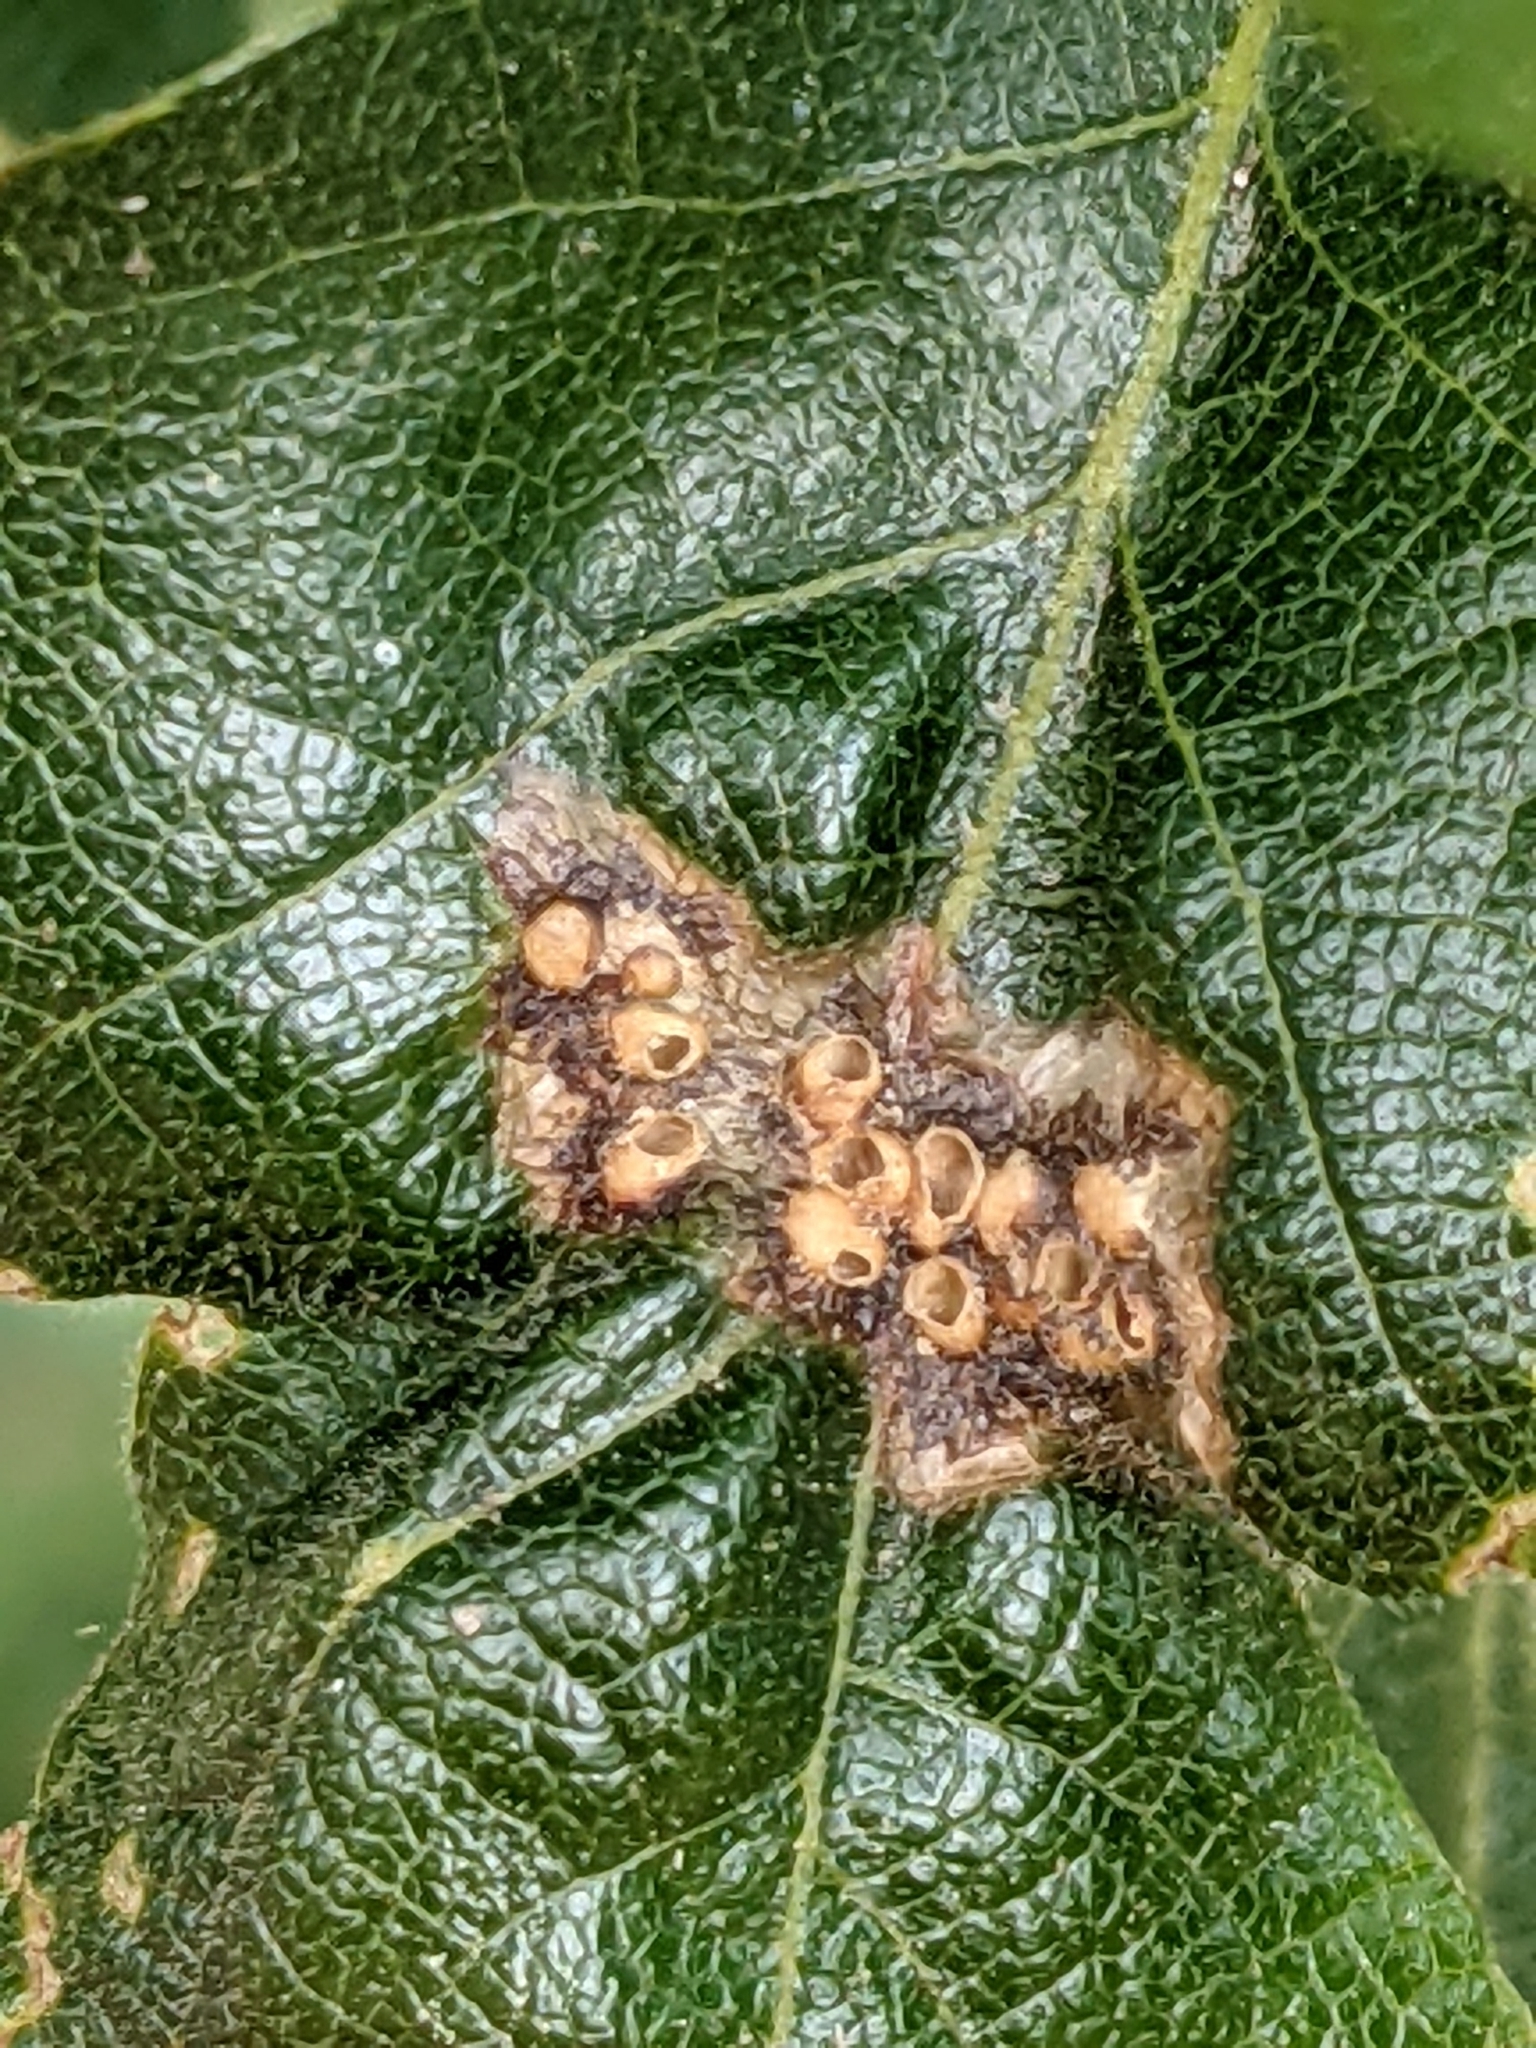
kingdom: Animalia
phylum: Arthropoda
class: Insecta
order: Hymenoptera
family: Cynipidae
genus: Neuroterus
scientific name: Neuroterus saltarius
